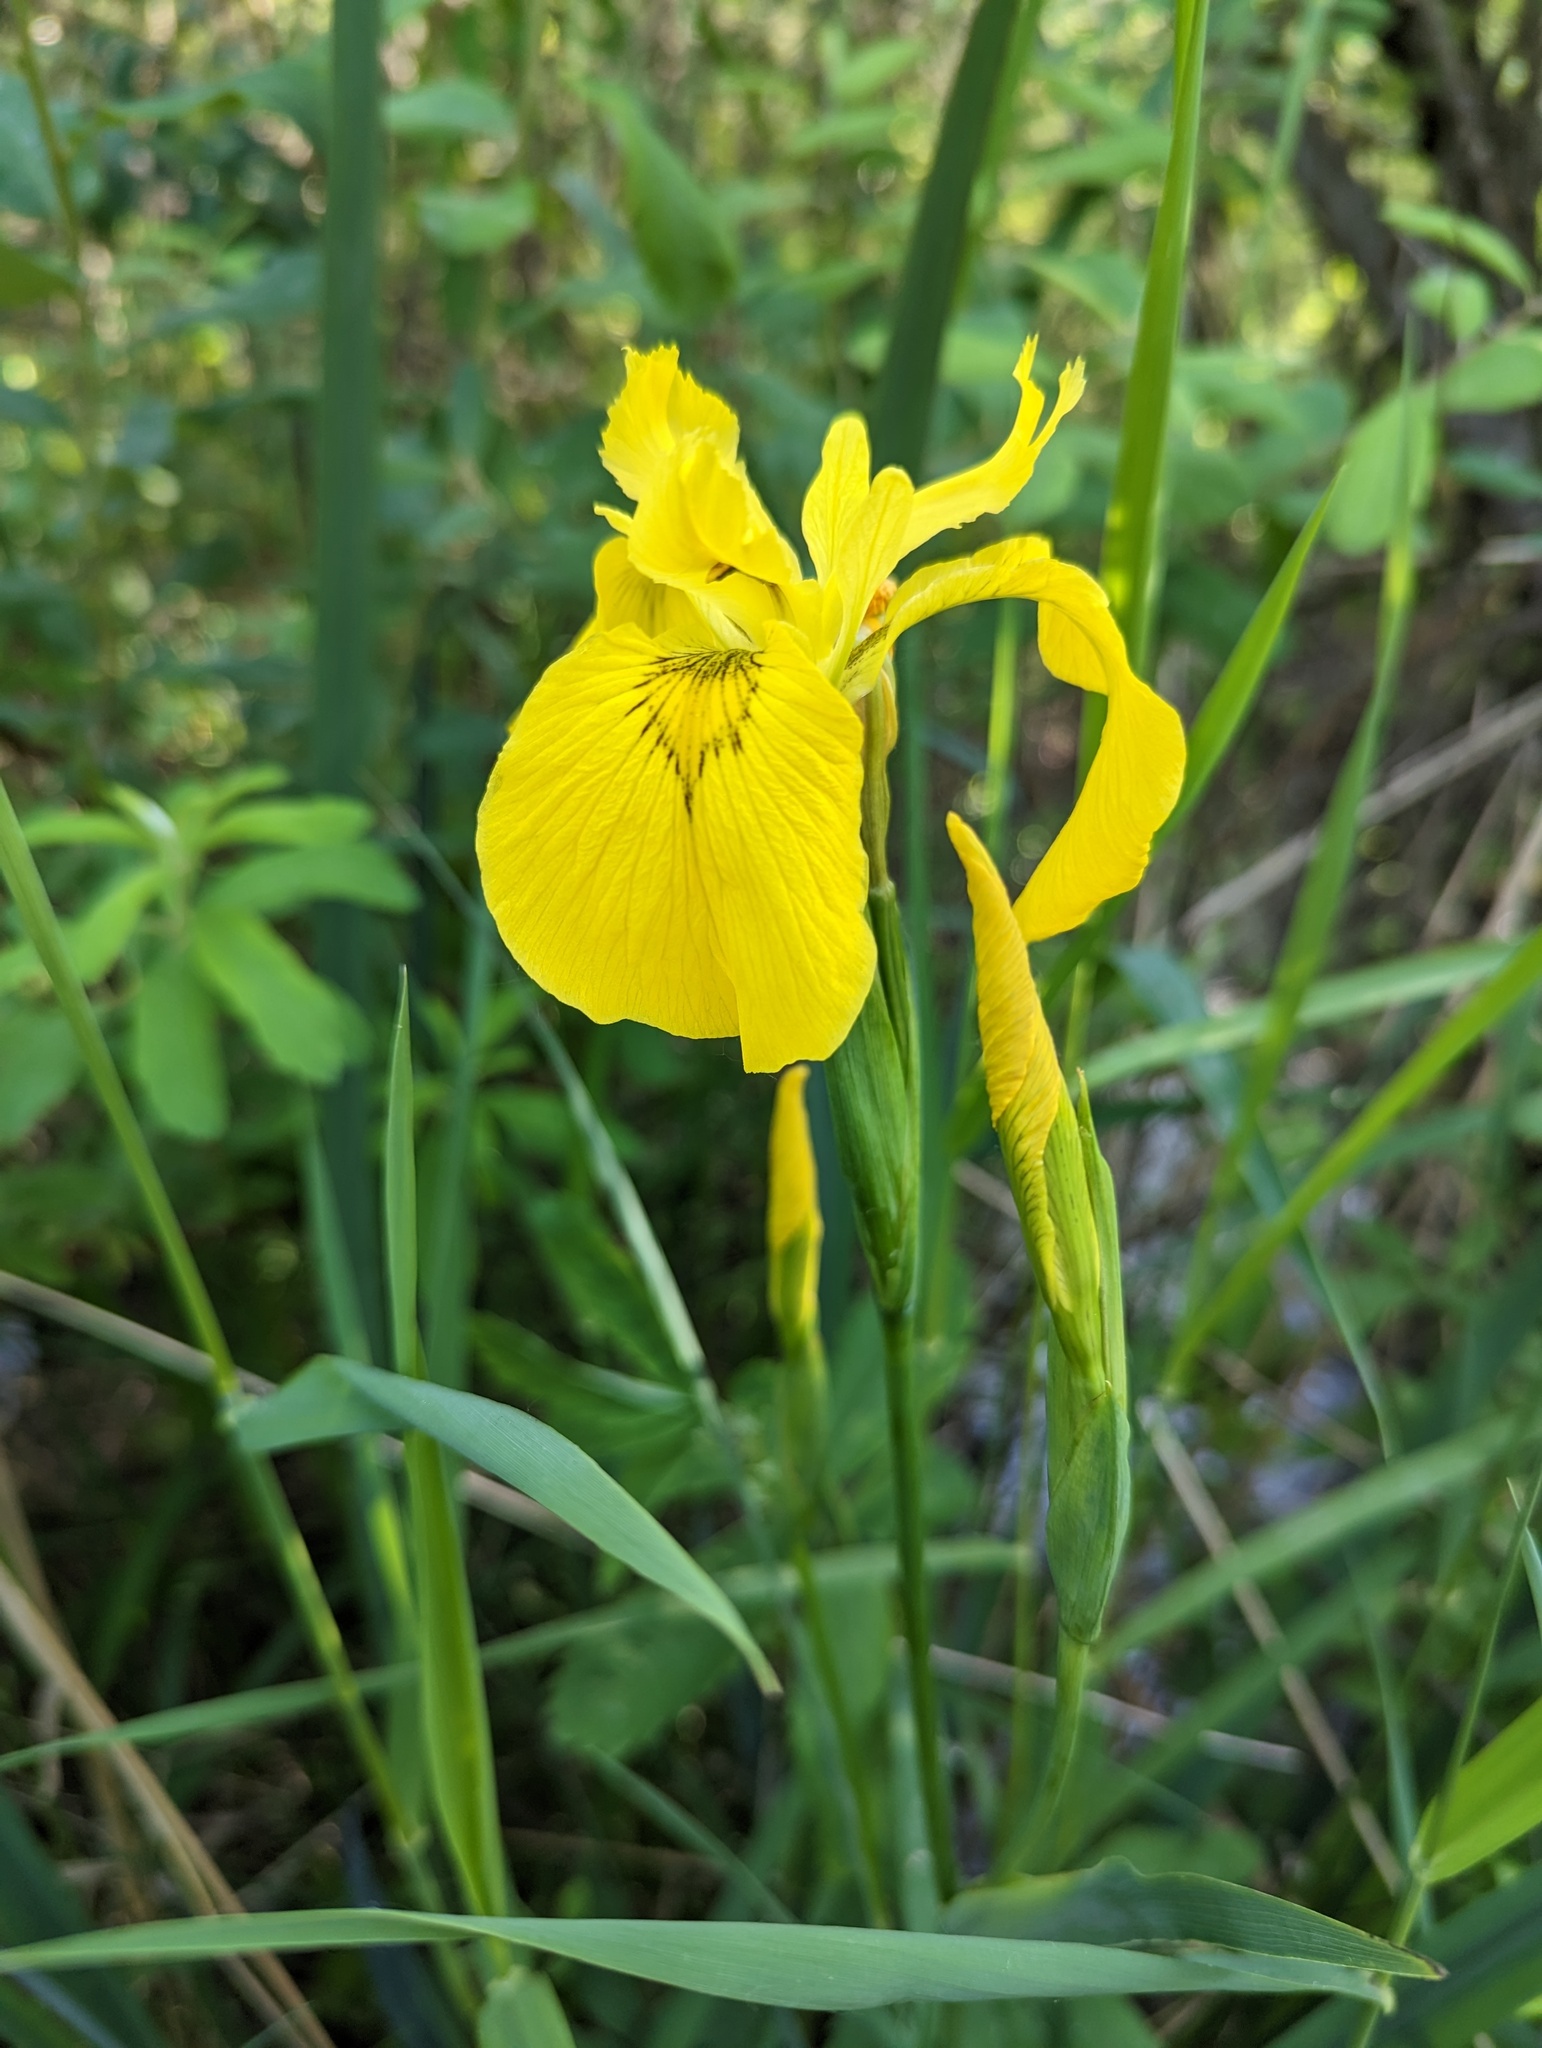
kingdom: Plantae
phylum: Tracheophyta
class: Liliopsida
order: Asparagales
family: Iridaceae
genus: Iris
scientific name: Iris pseudacorus
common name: Yellow flag
